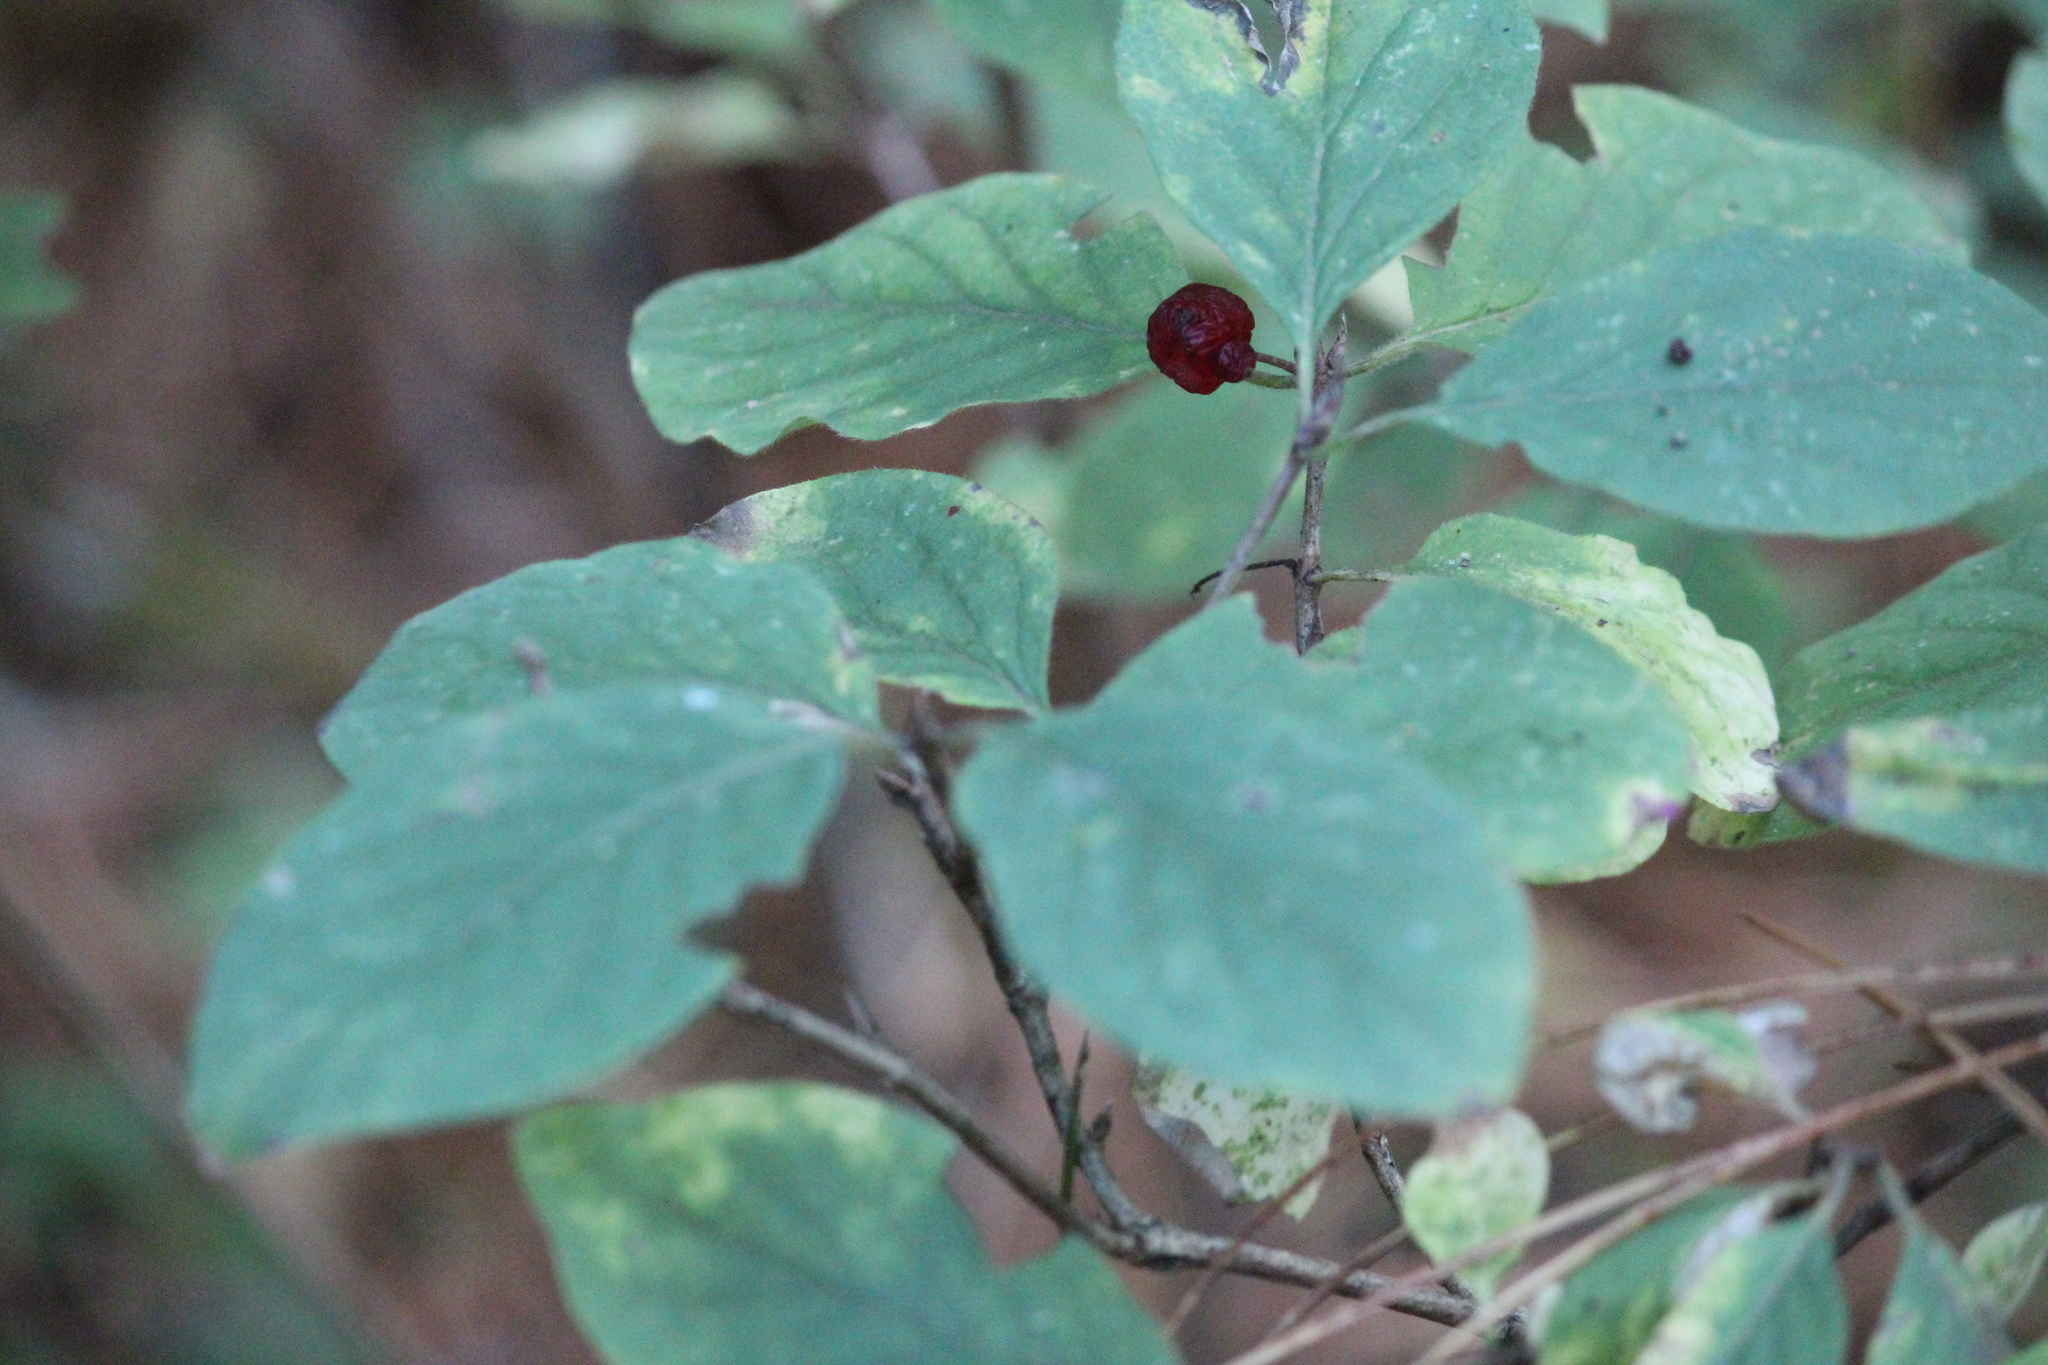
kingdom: Plantae
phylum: Tracheophyta
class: Magnoliopsida
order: Dipsacales
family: Caprifoliaceae
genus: Lonicera
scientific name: Lonicera xylosteum
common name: Fly honeysuckle
